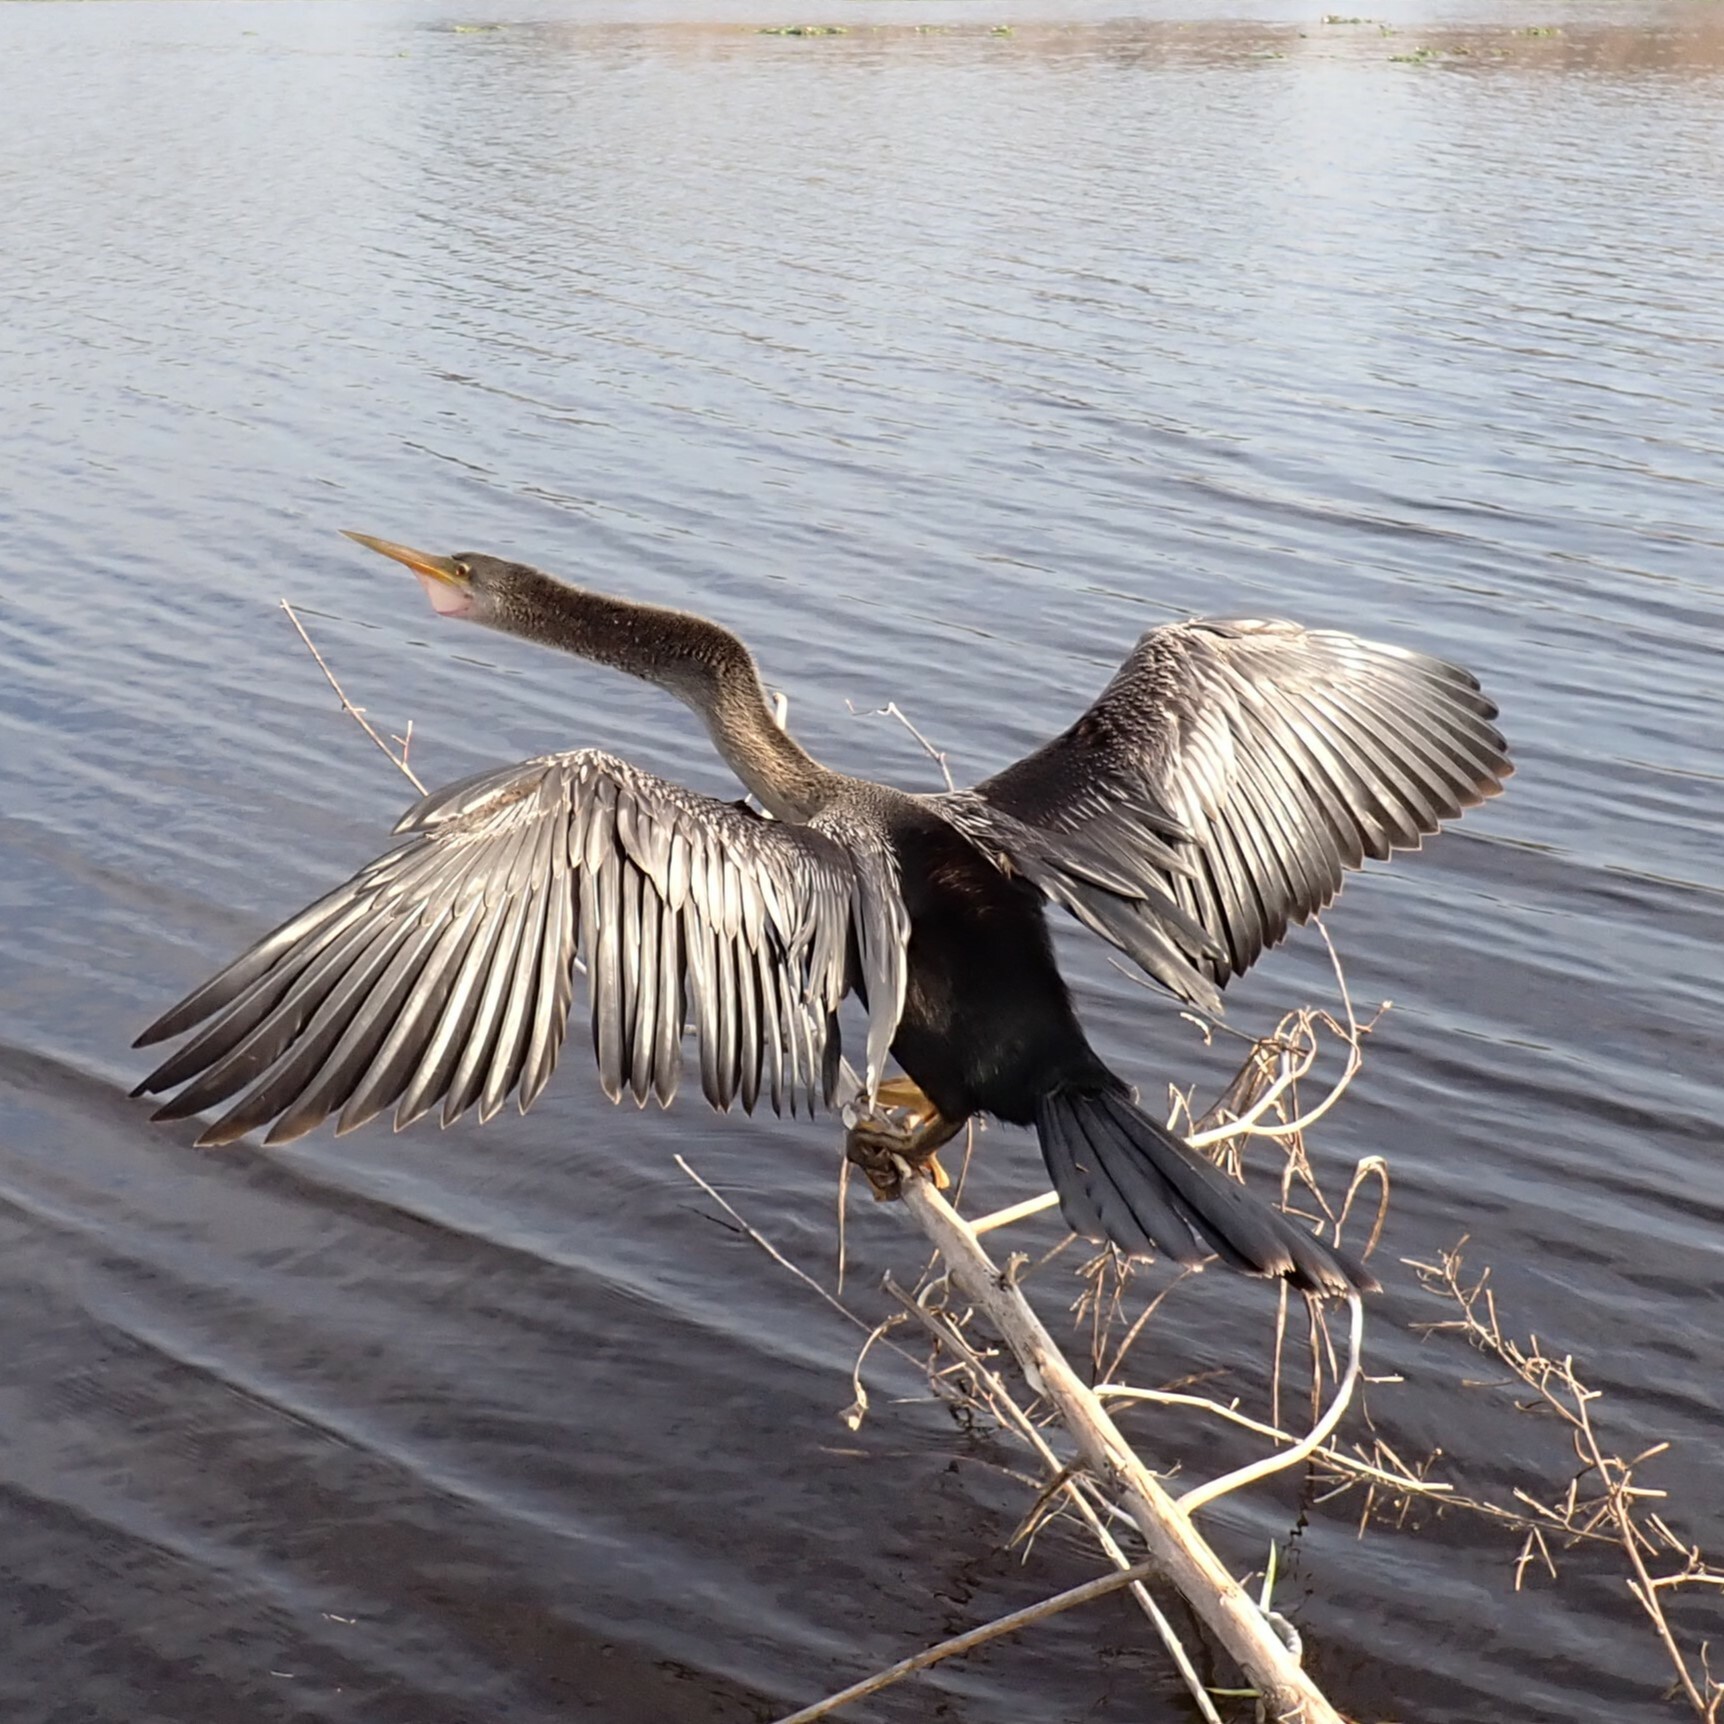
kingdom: Animalia
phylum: Chordata
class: Aves
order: Suliformes
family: Anhingidae
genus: Anhinga
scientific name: Anhinga anhinga
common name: Anhinga
